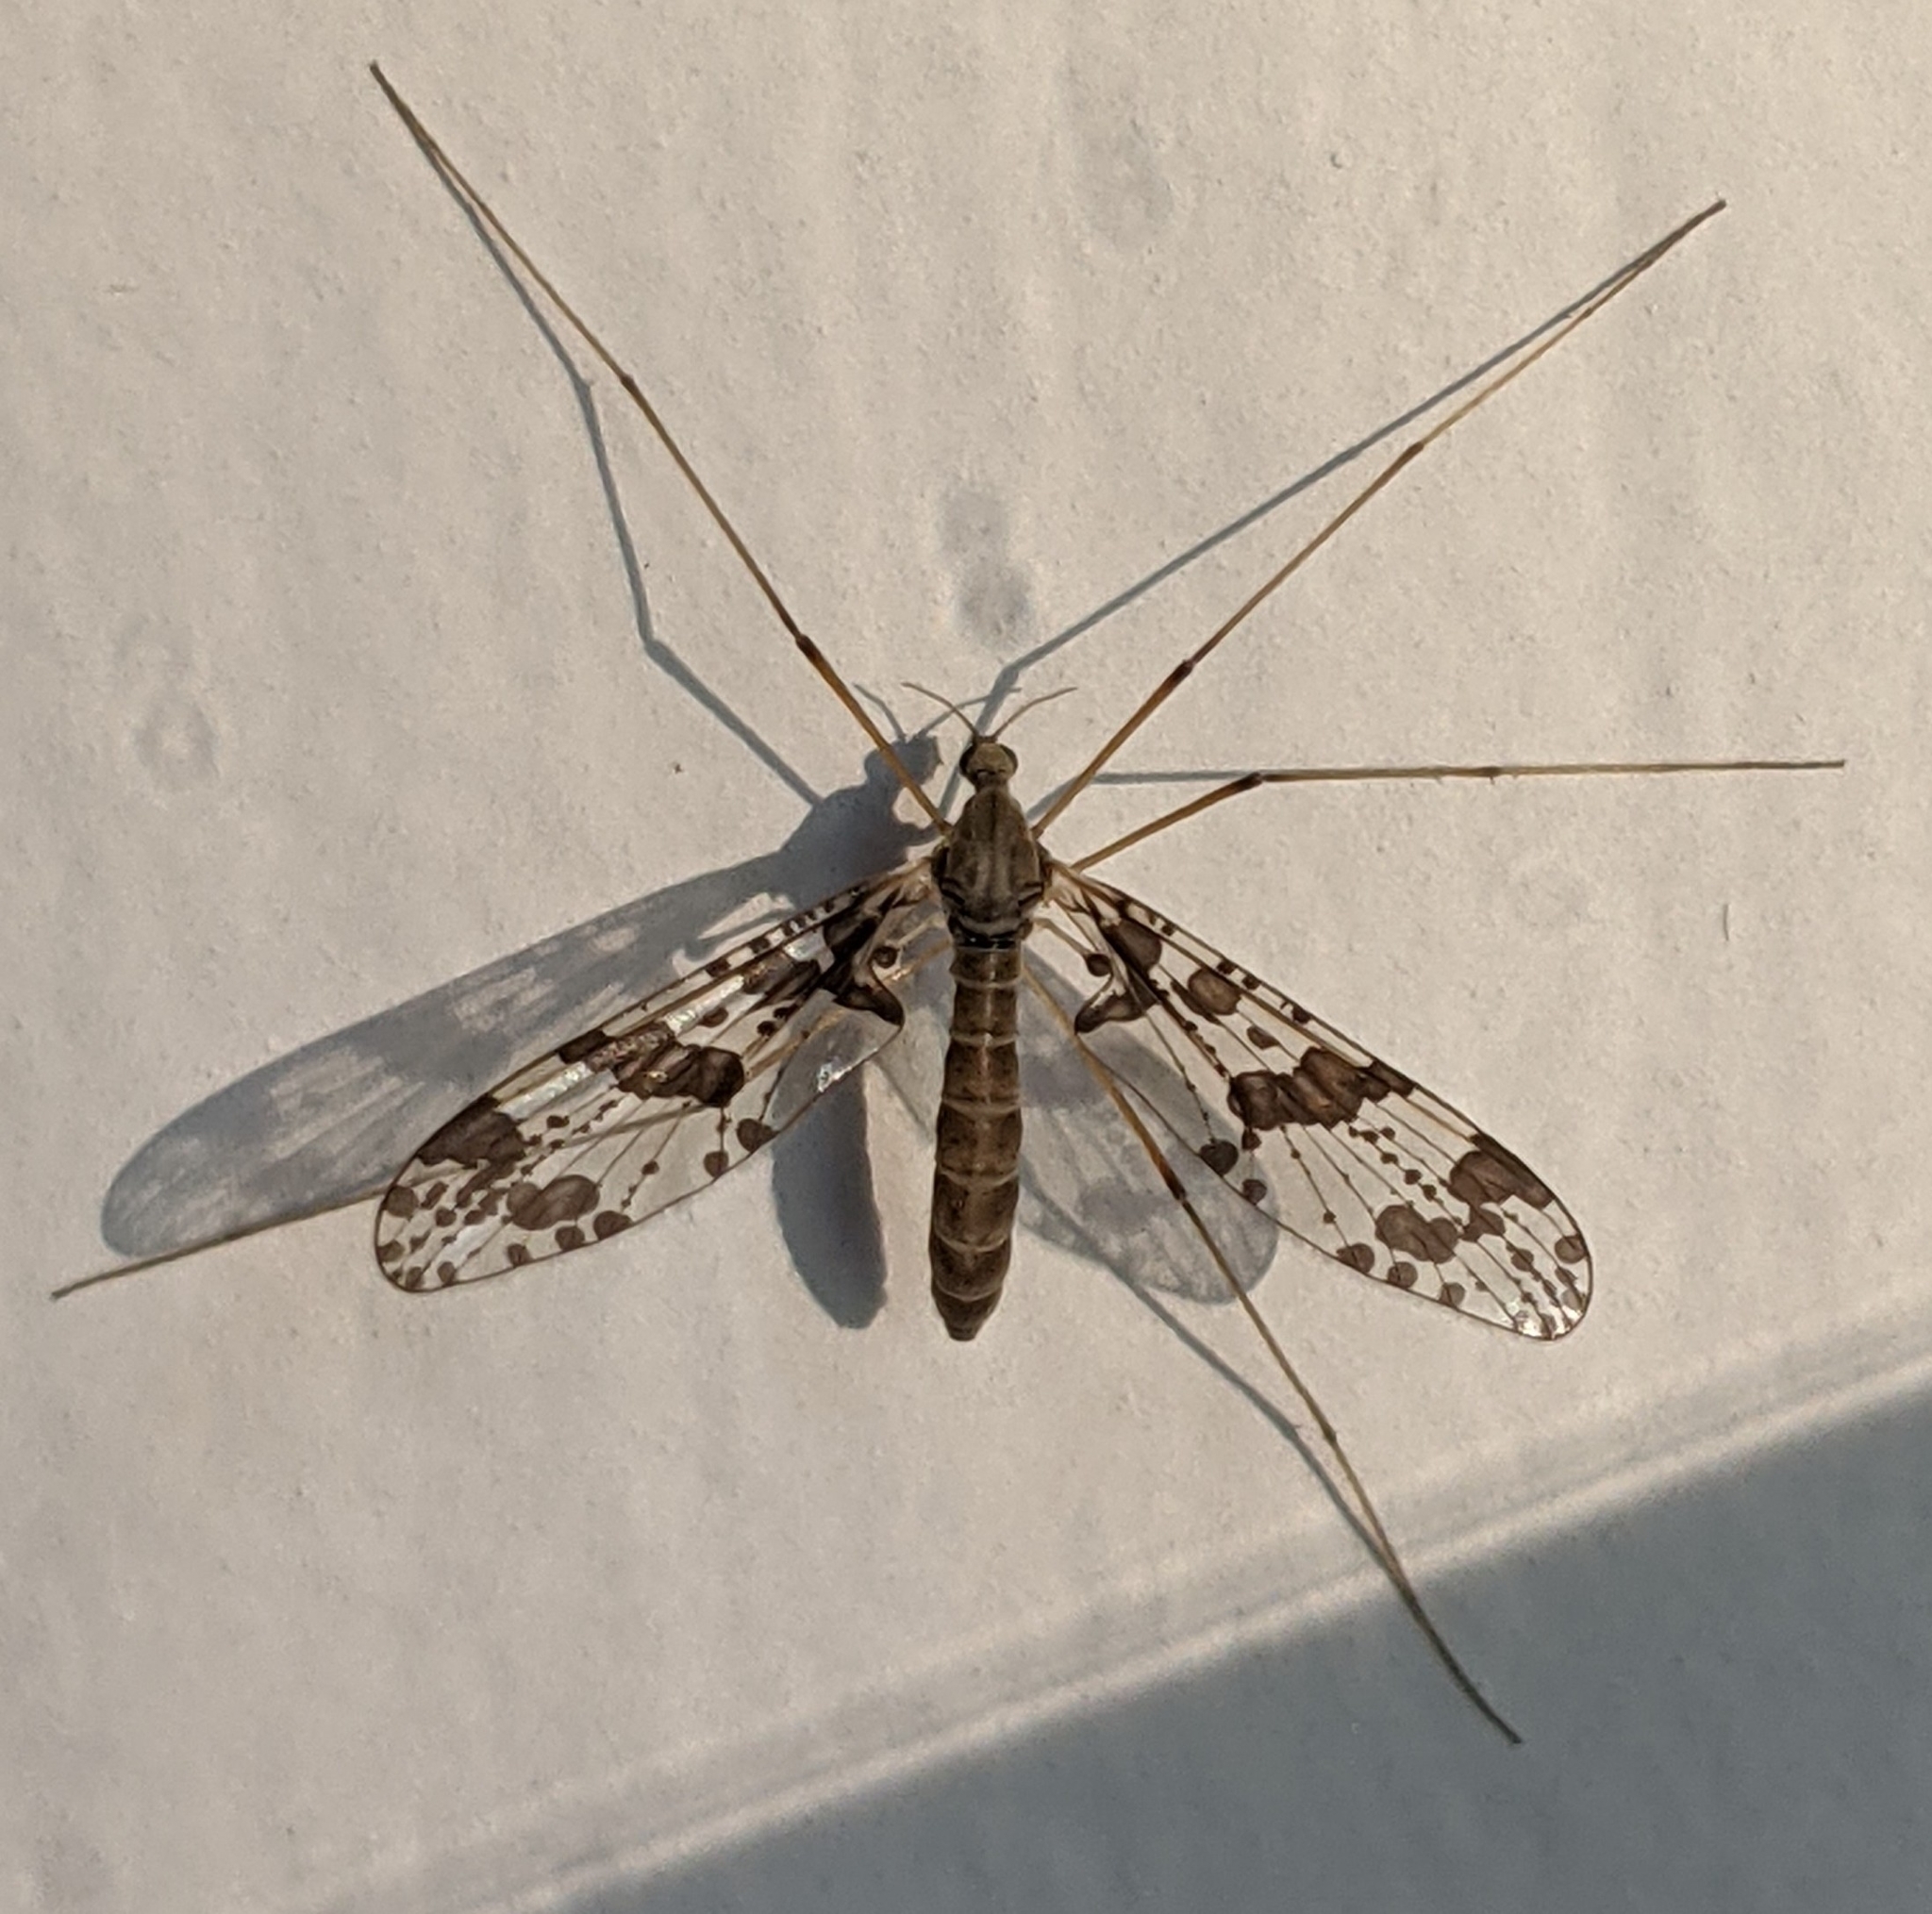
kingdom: Animalia
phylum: Arthropoda
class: Insecta
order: Diptera
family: Tanyderidae
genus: Protanyderus
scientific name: Protanyderus margarita
